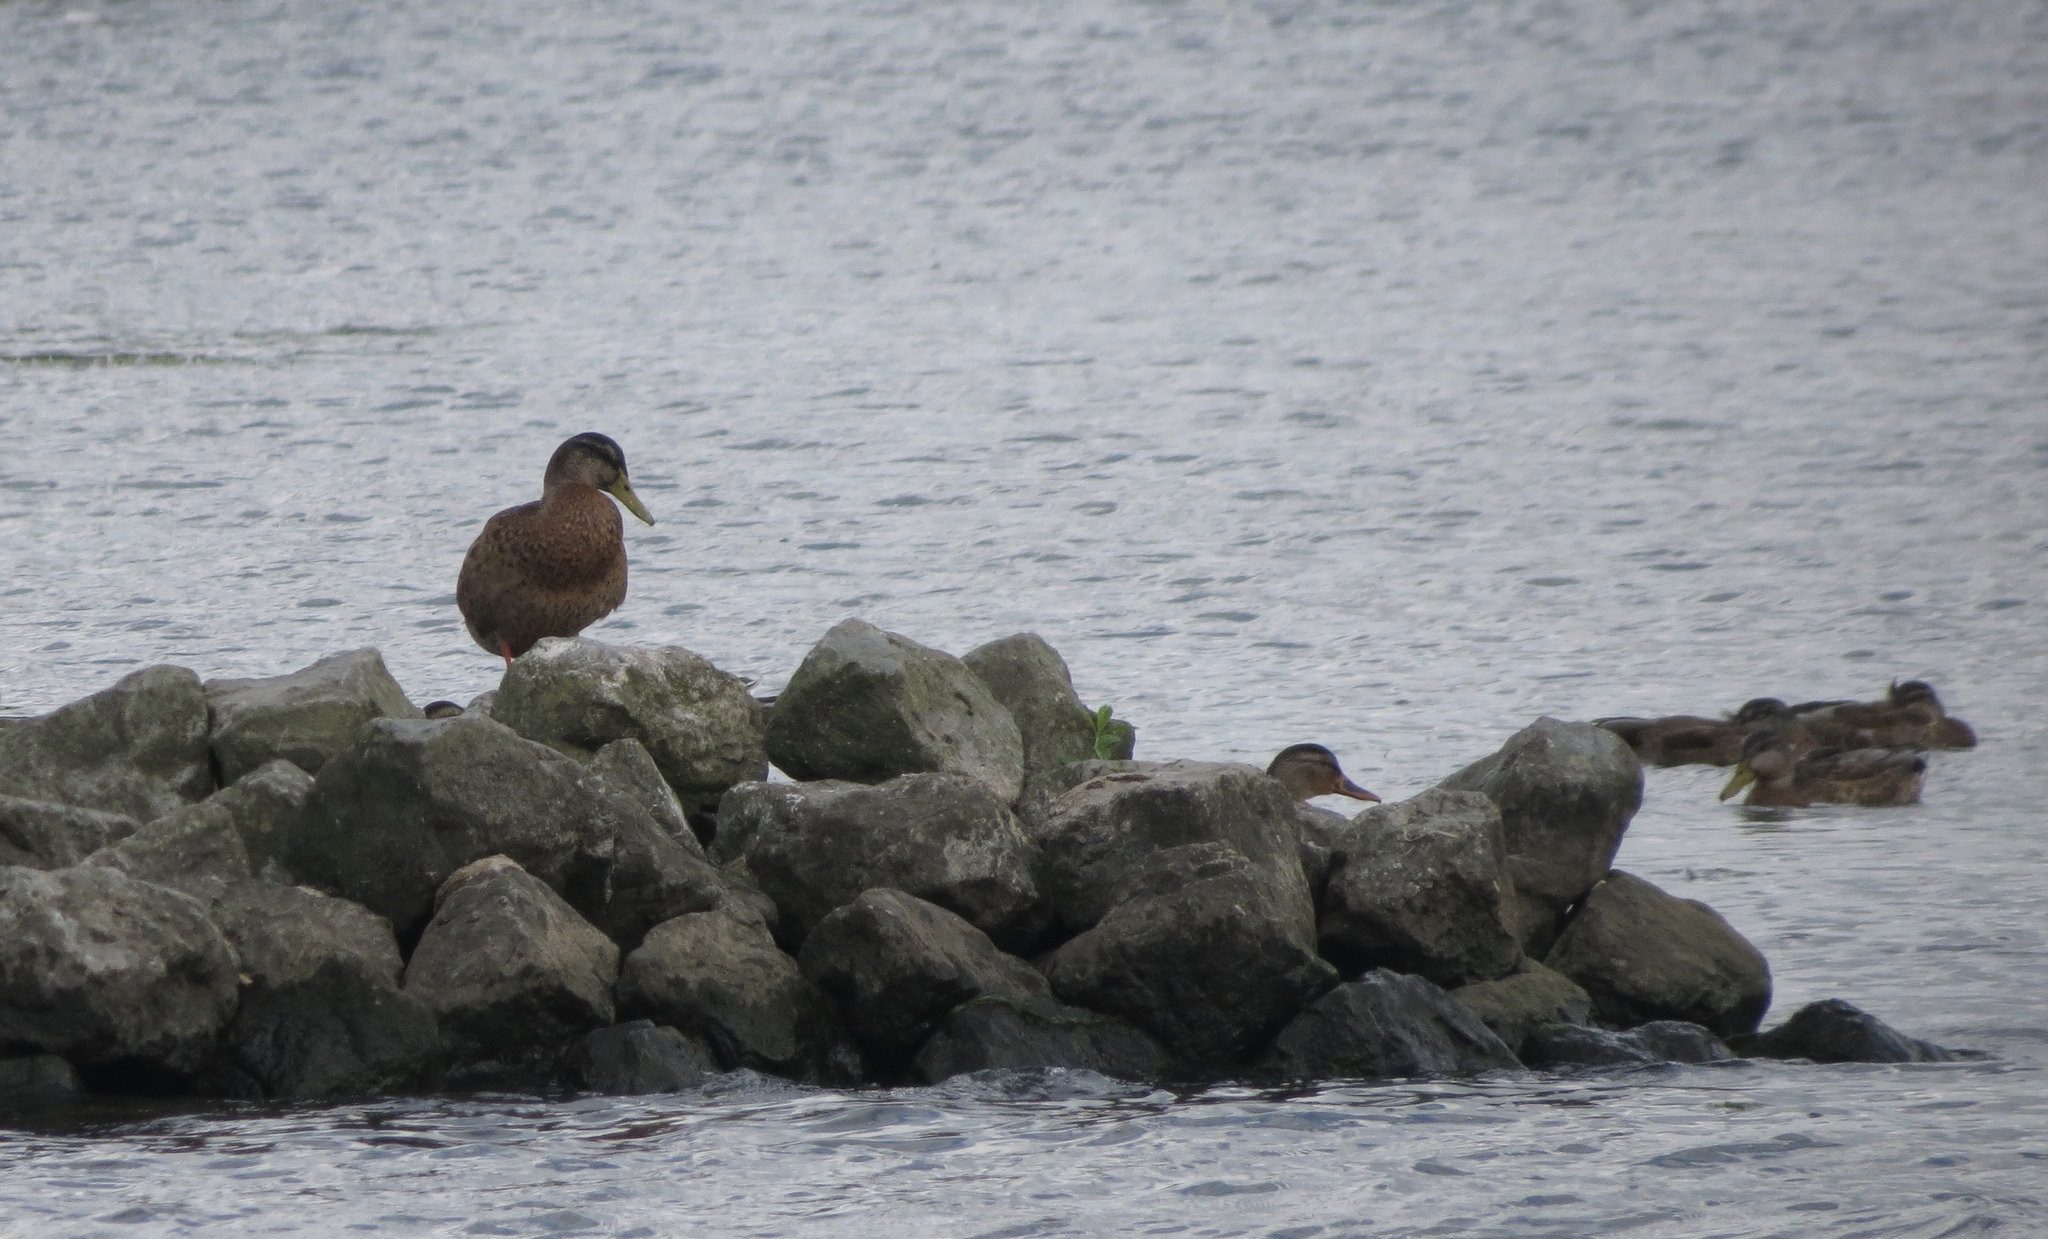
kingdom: Animalia
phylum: Chordata
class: Aves
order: Anseriformes
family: Anatidae
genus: Anas
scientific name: Anas platyrhynchos
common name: Mallard
